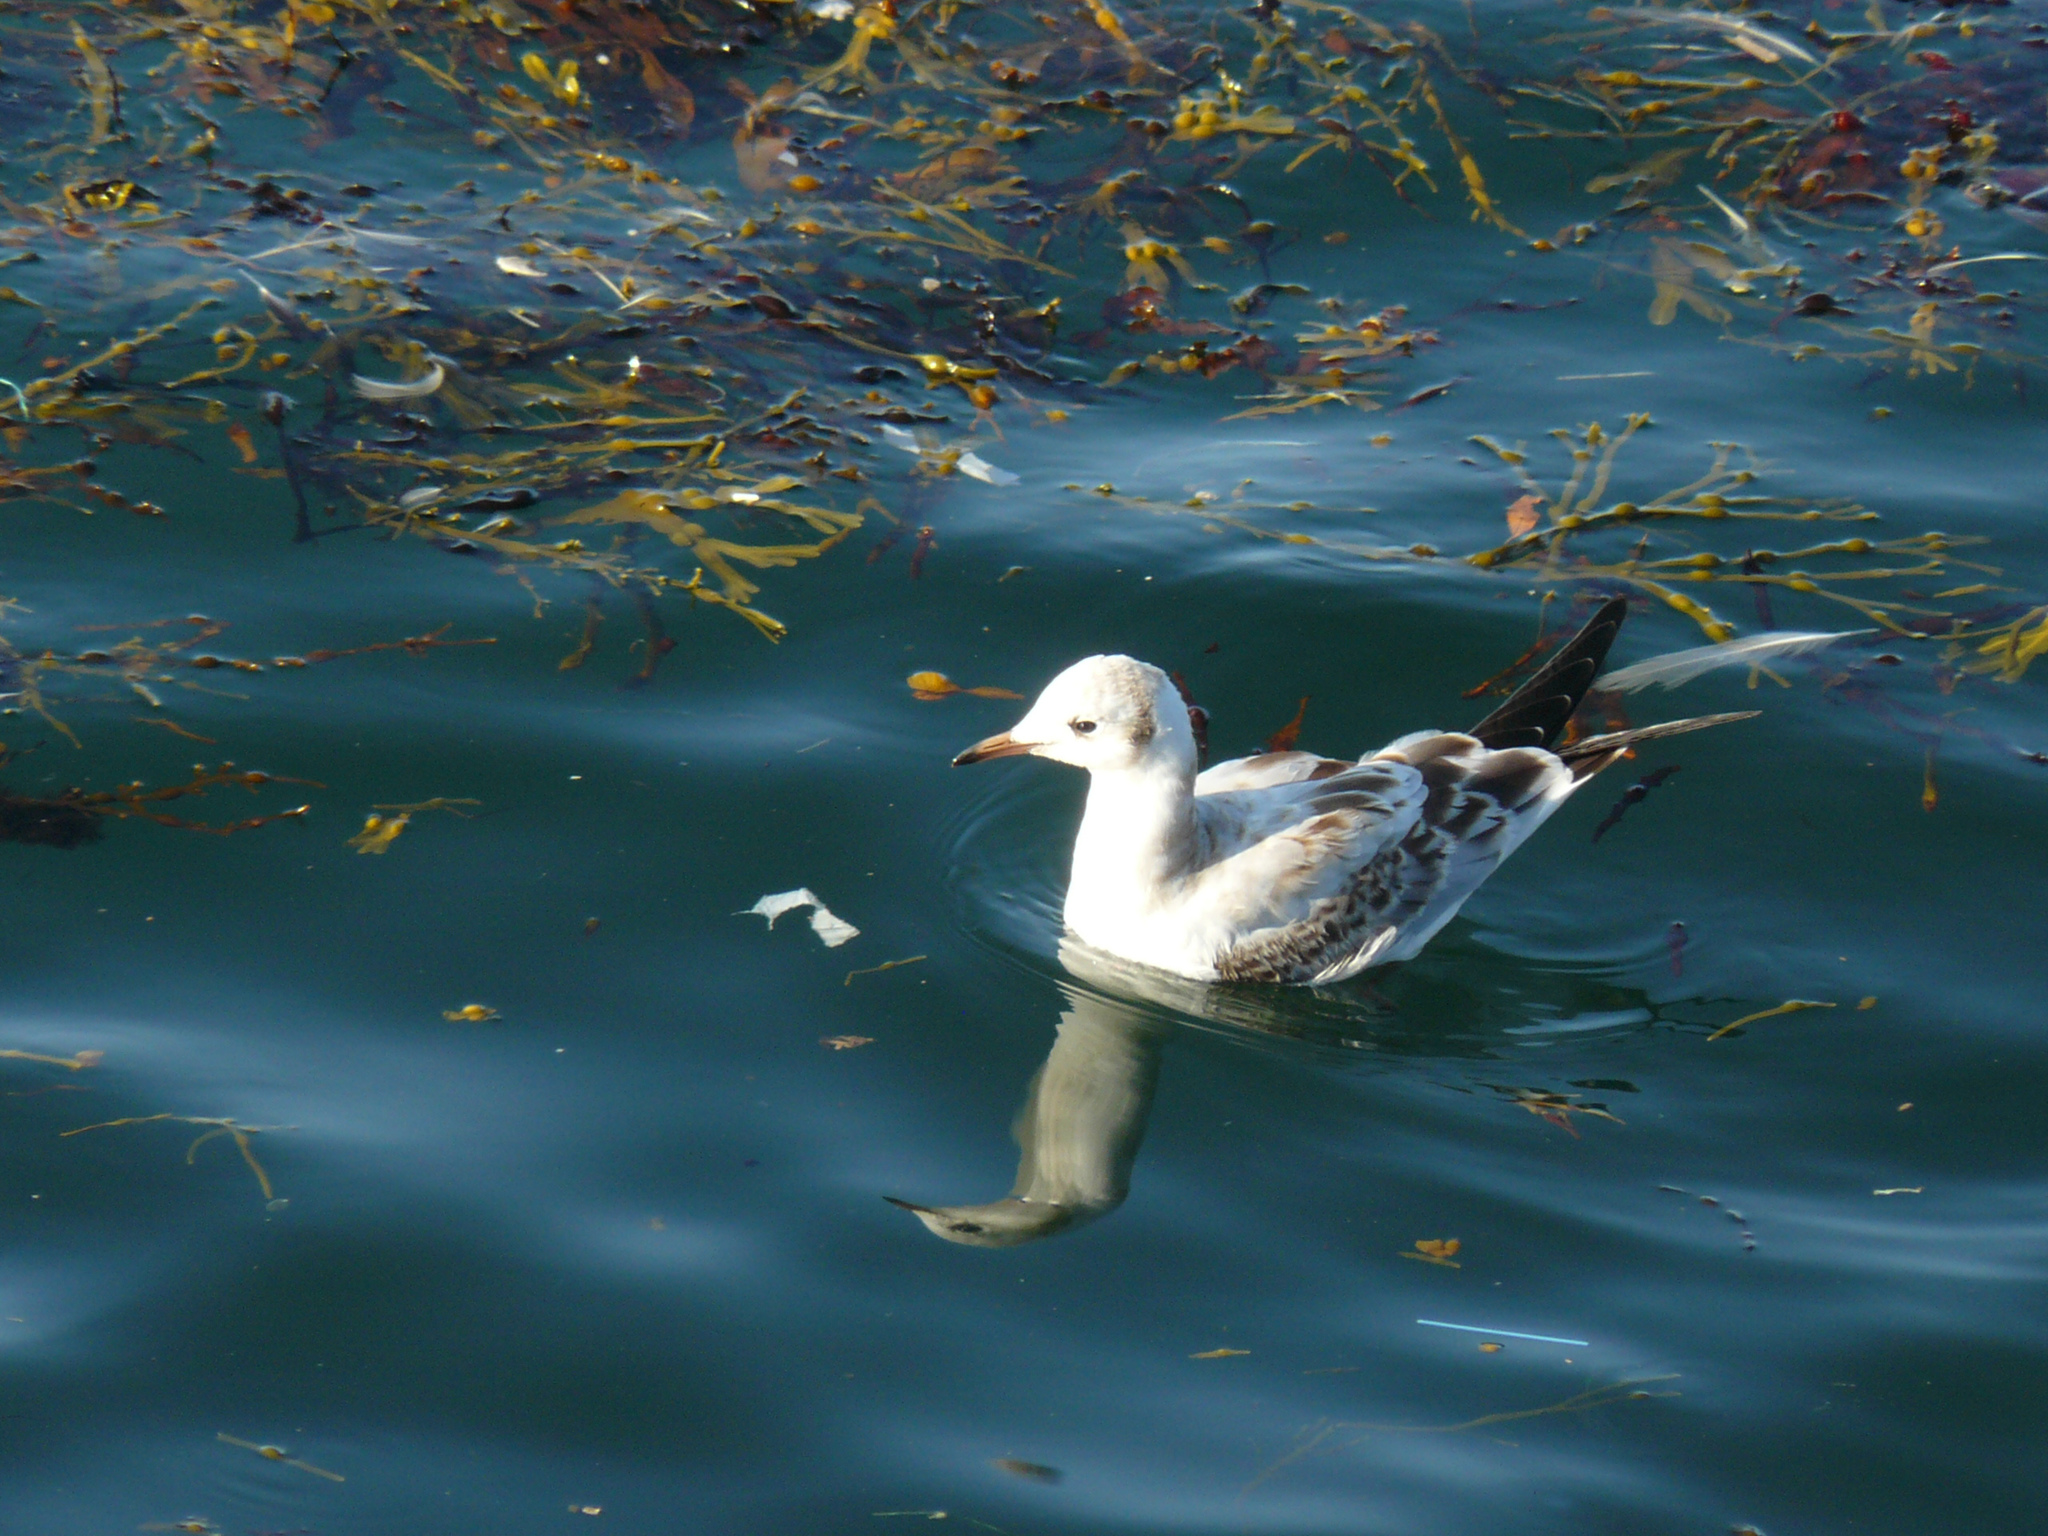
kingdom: Animalia
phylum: Chordata
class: Aves
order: Charadriiformes
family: Laridae
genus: Chroicocephalus
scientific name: Chroicocephalus ridibundus
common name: Black-headed gull
